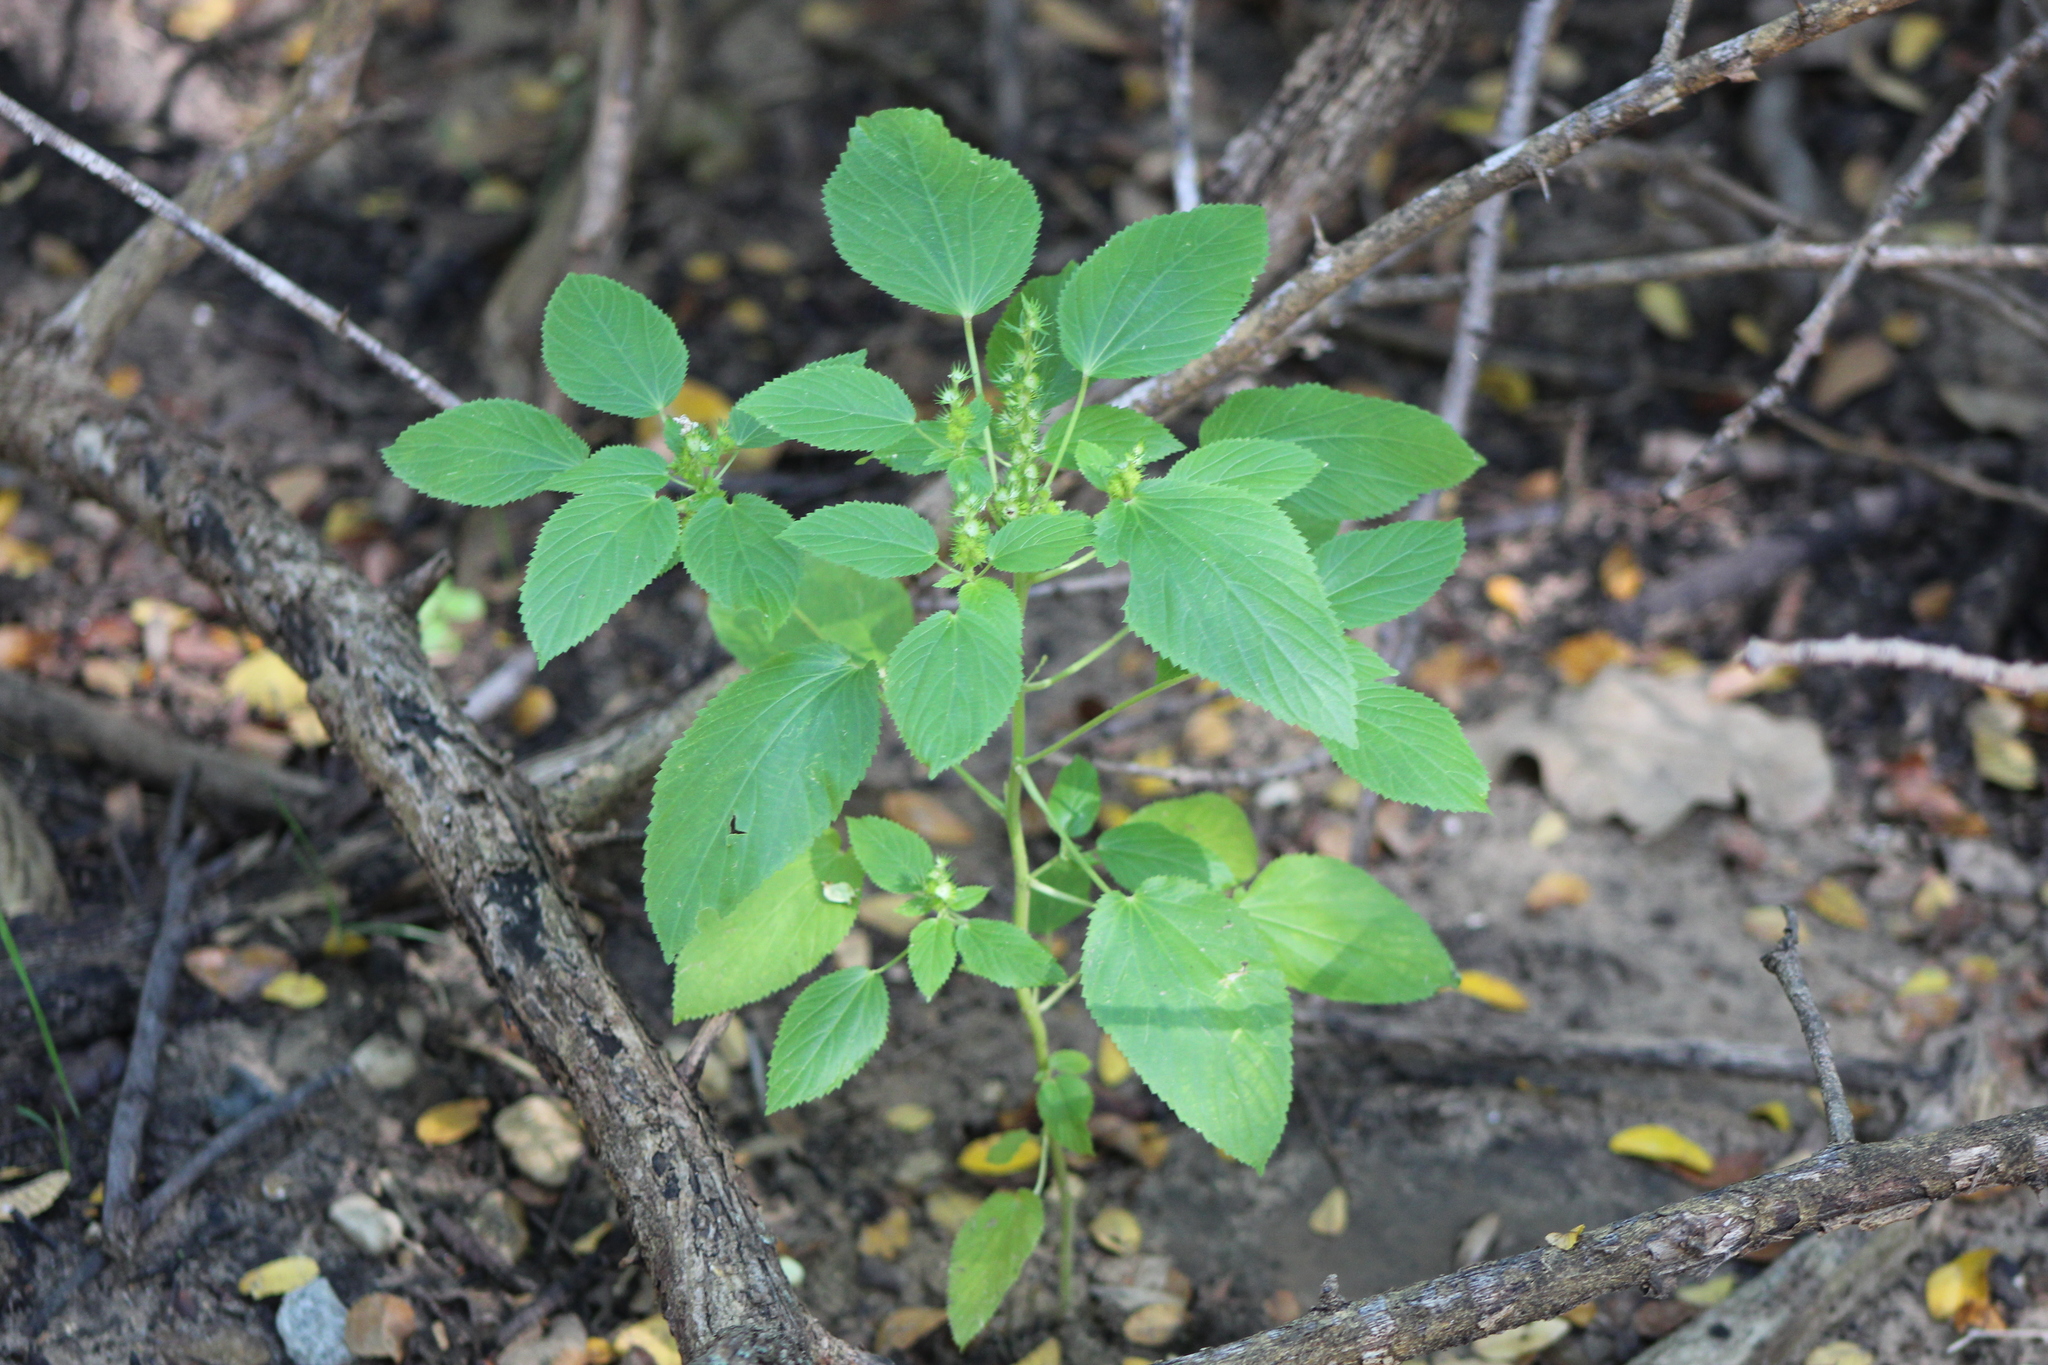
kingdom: Plantae
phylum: Tracheophyta
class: Magnoliopsida
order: Malpighiales
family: Euphorbiaceae
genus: Acalypha
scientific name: Acalypha ostryifolia
